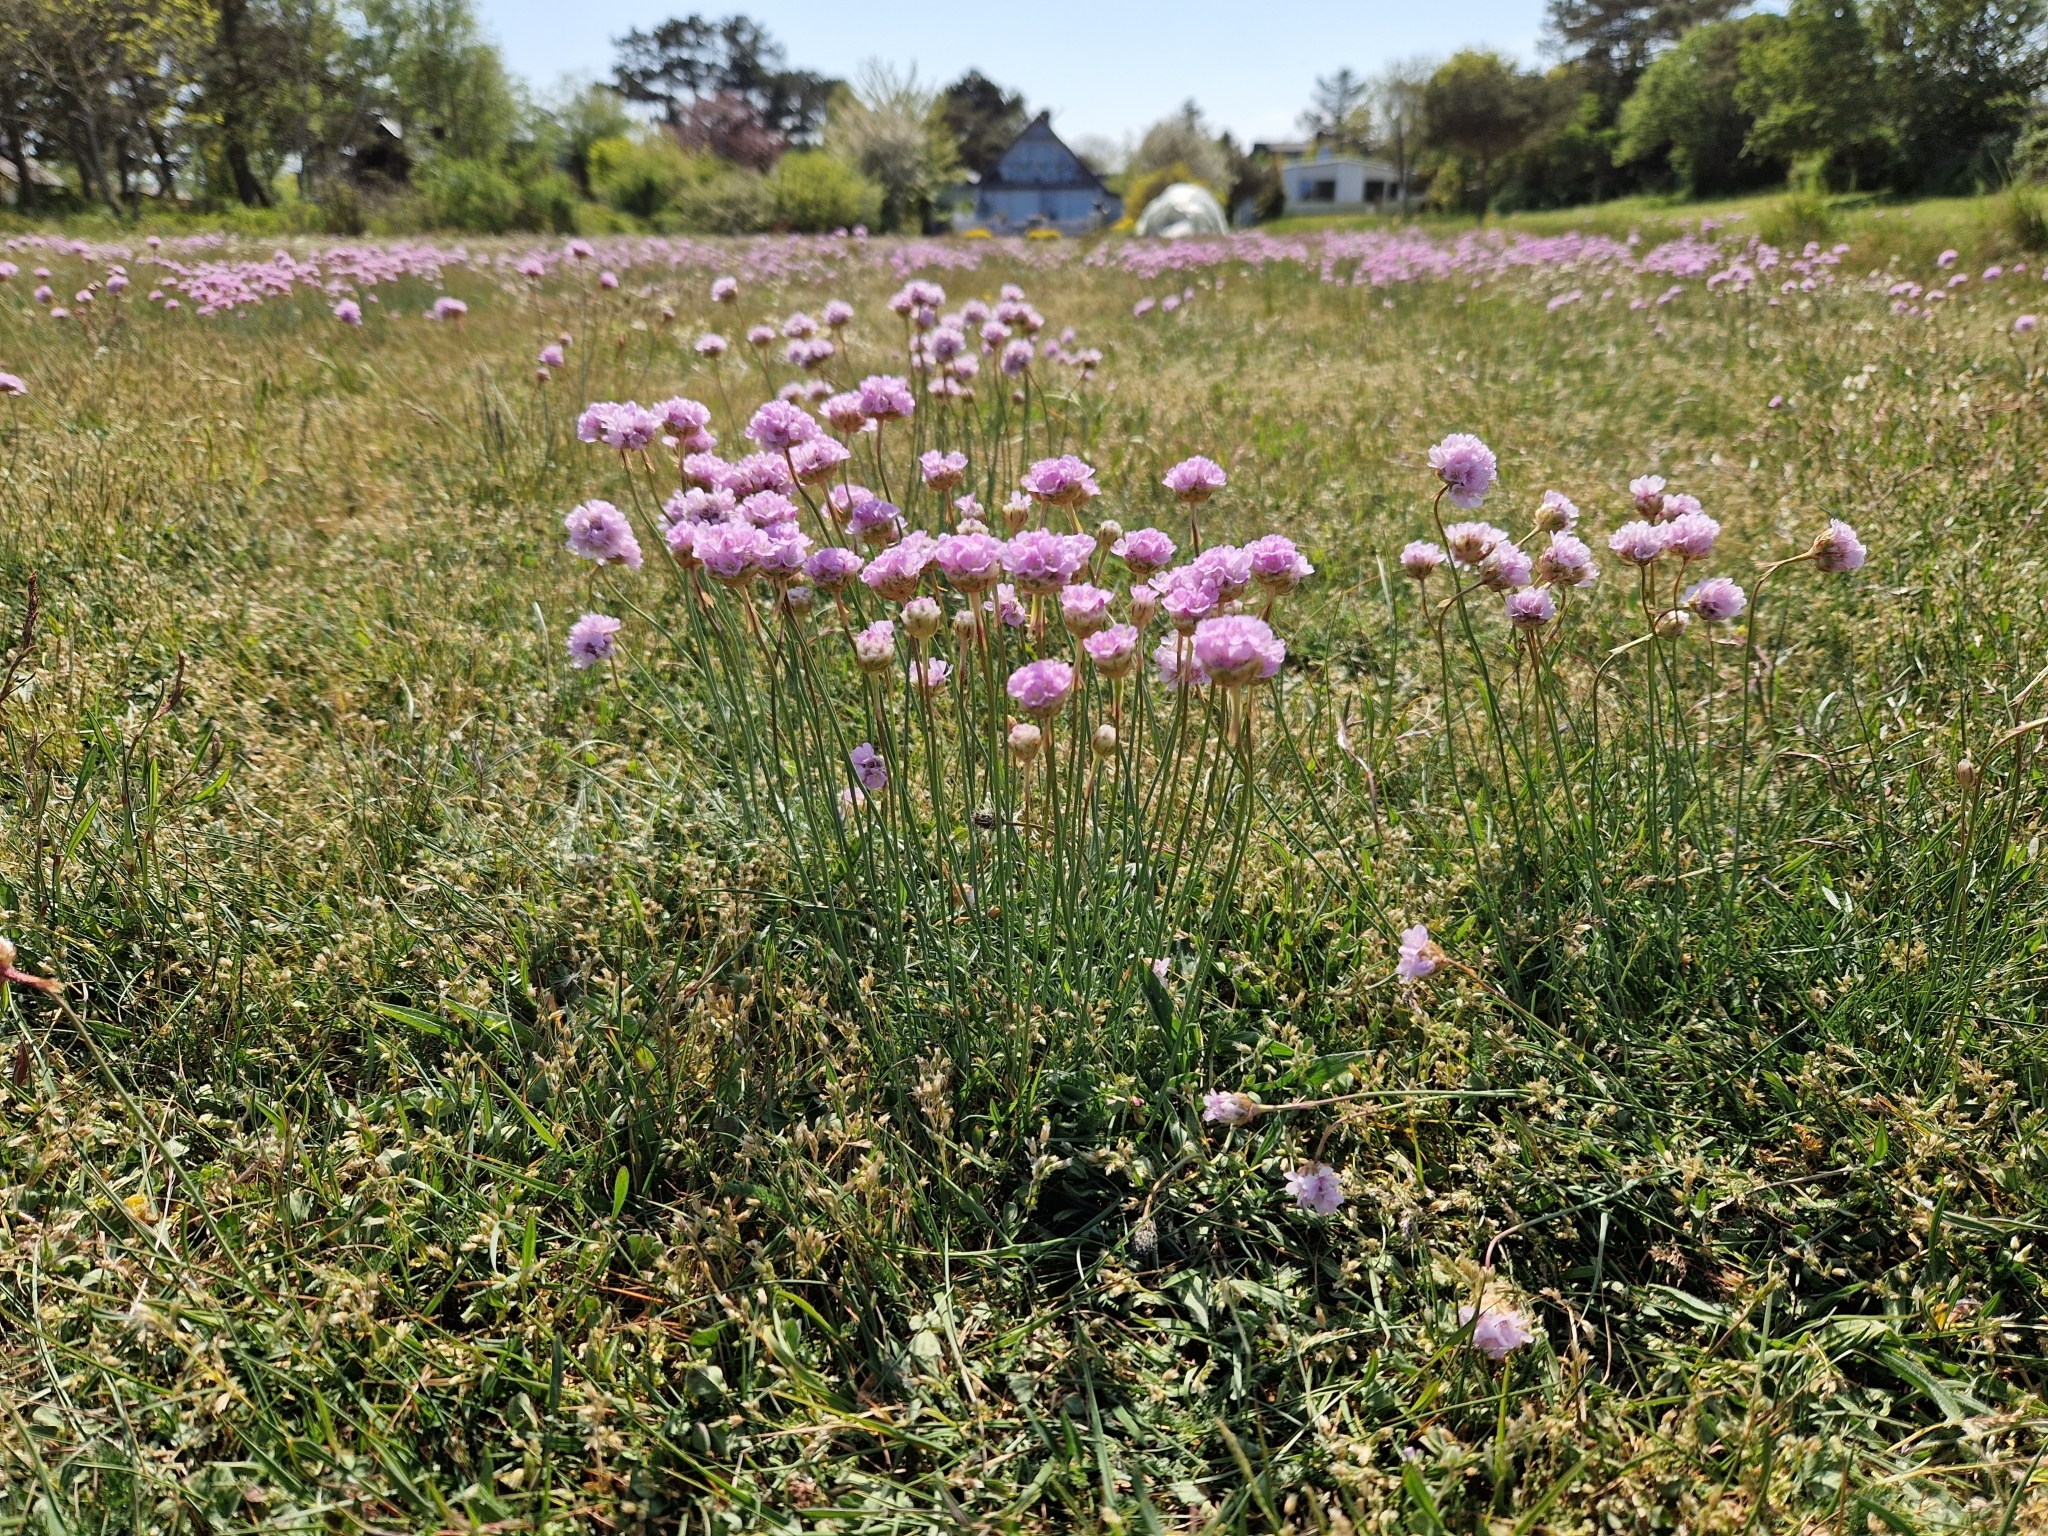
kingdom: Plantae
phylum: Tracheophyta
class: Magnoliopsida
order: Caryophyllales
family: Plumbaginaceae
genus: Armeria
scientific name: Armeria maritima
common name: Thrift
